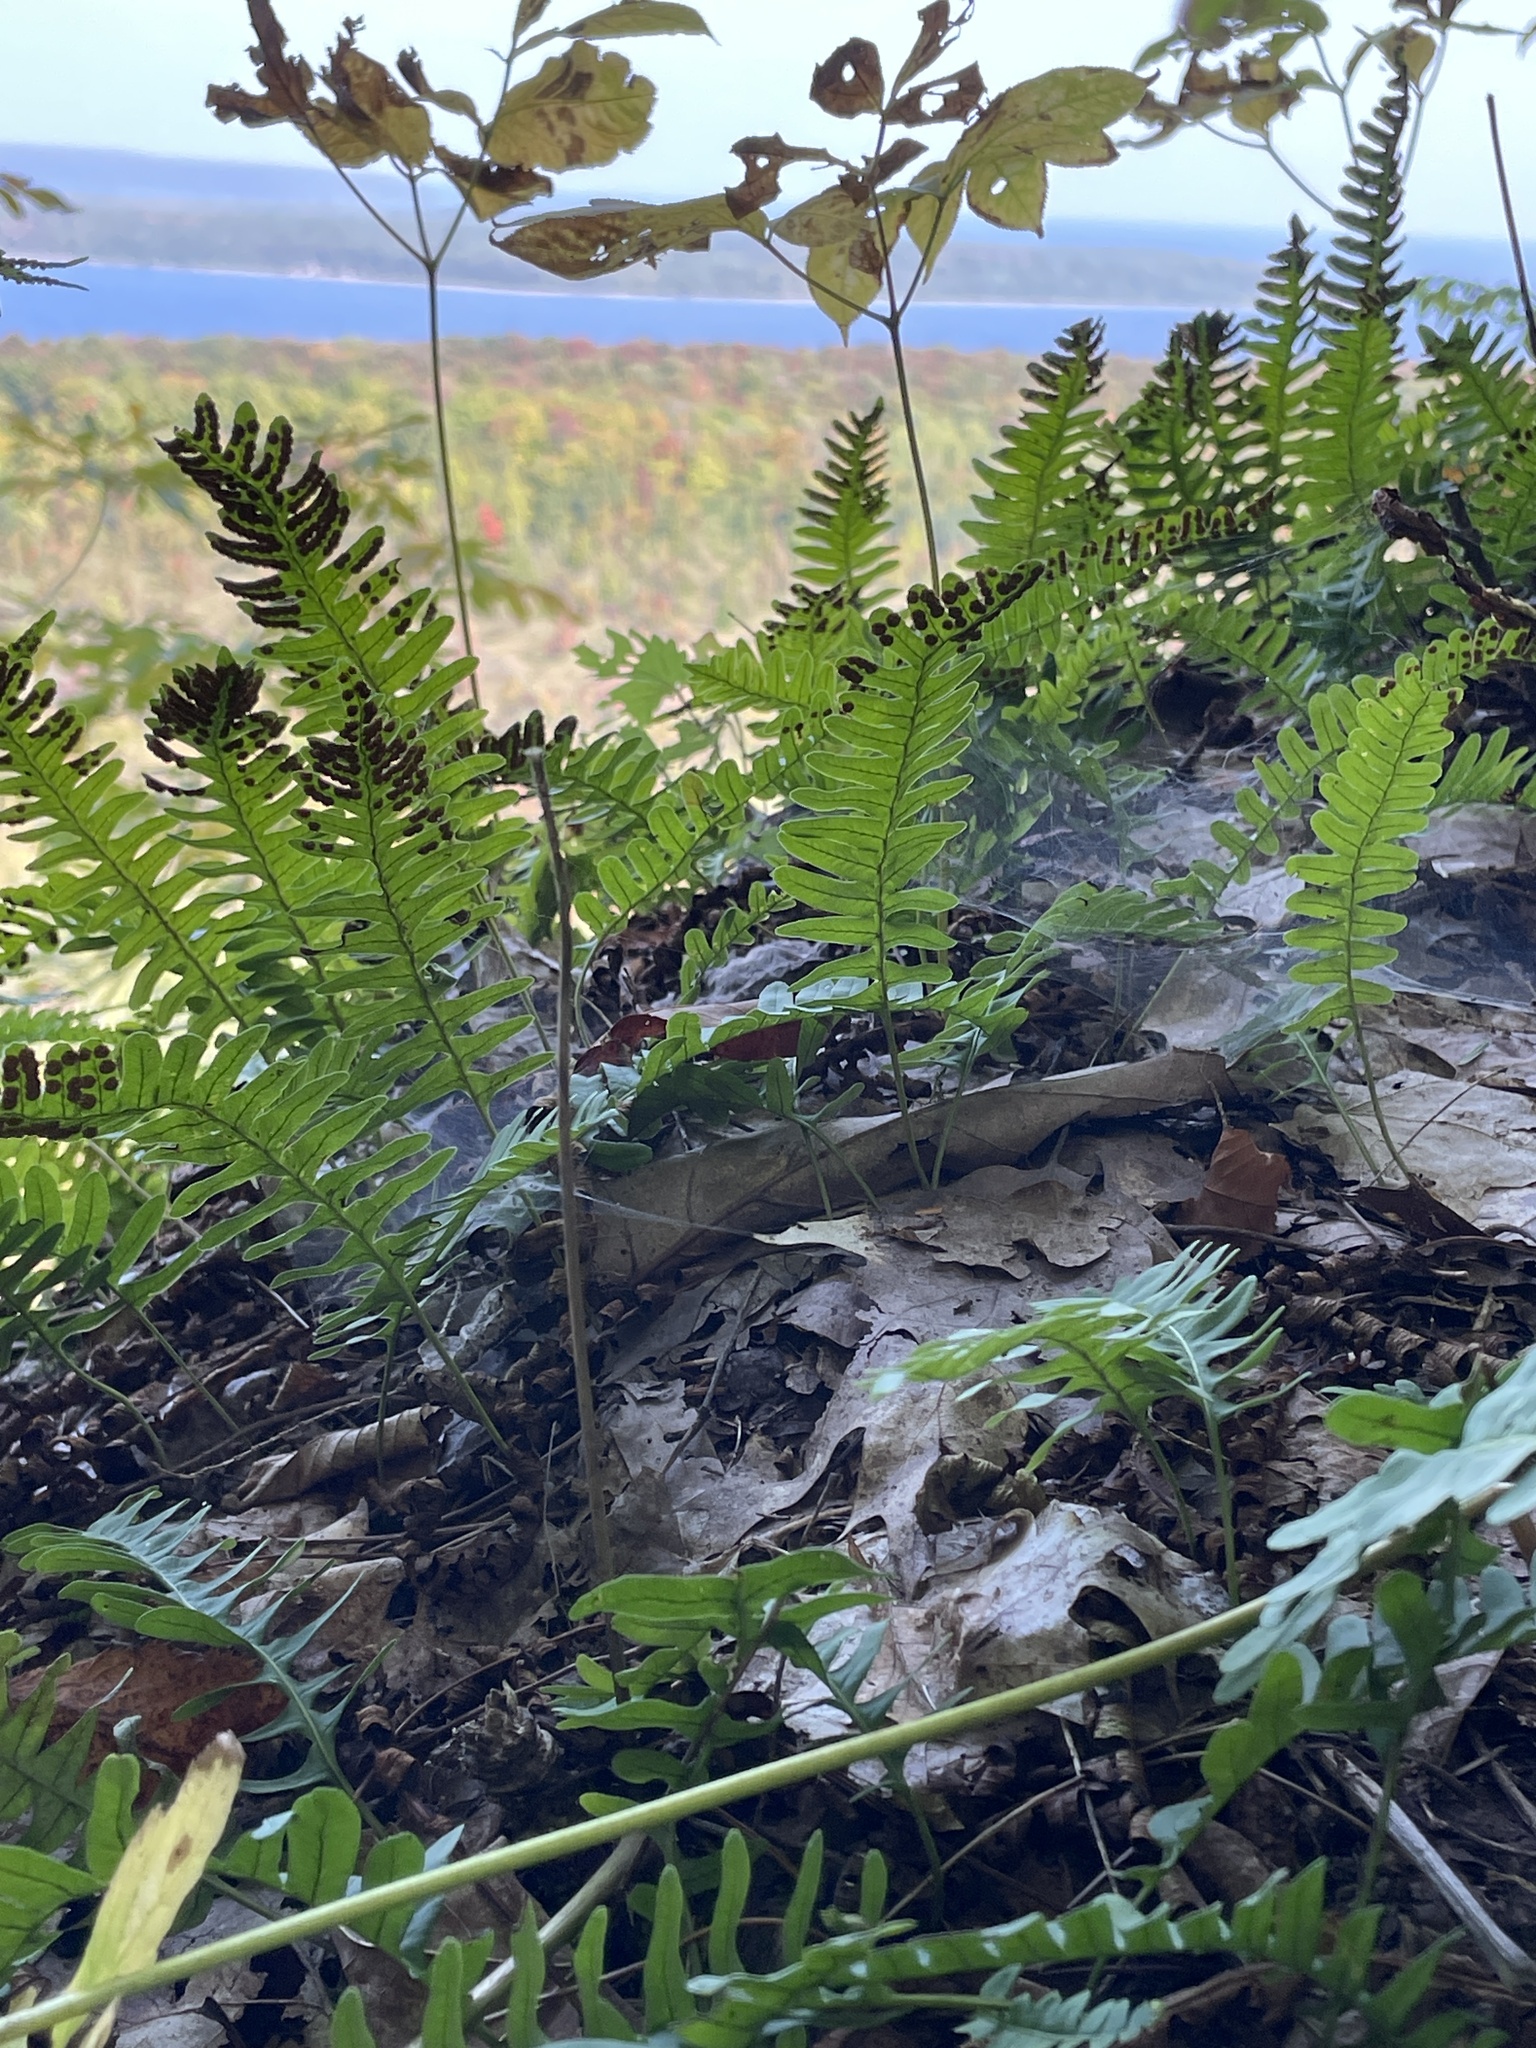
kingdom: Plantae
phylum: Tracheophyta
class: Polypodiopsida
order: Polypodiales
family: Polypodiaceae
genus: Polypodium
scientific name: Polypodium virginianum
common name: American wall fern
